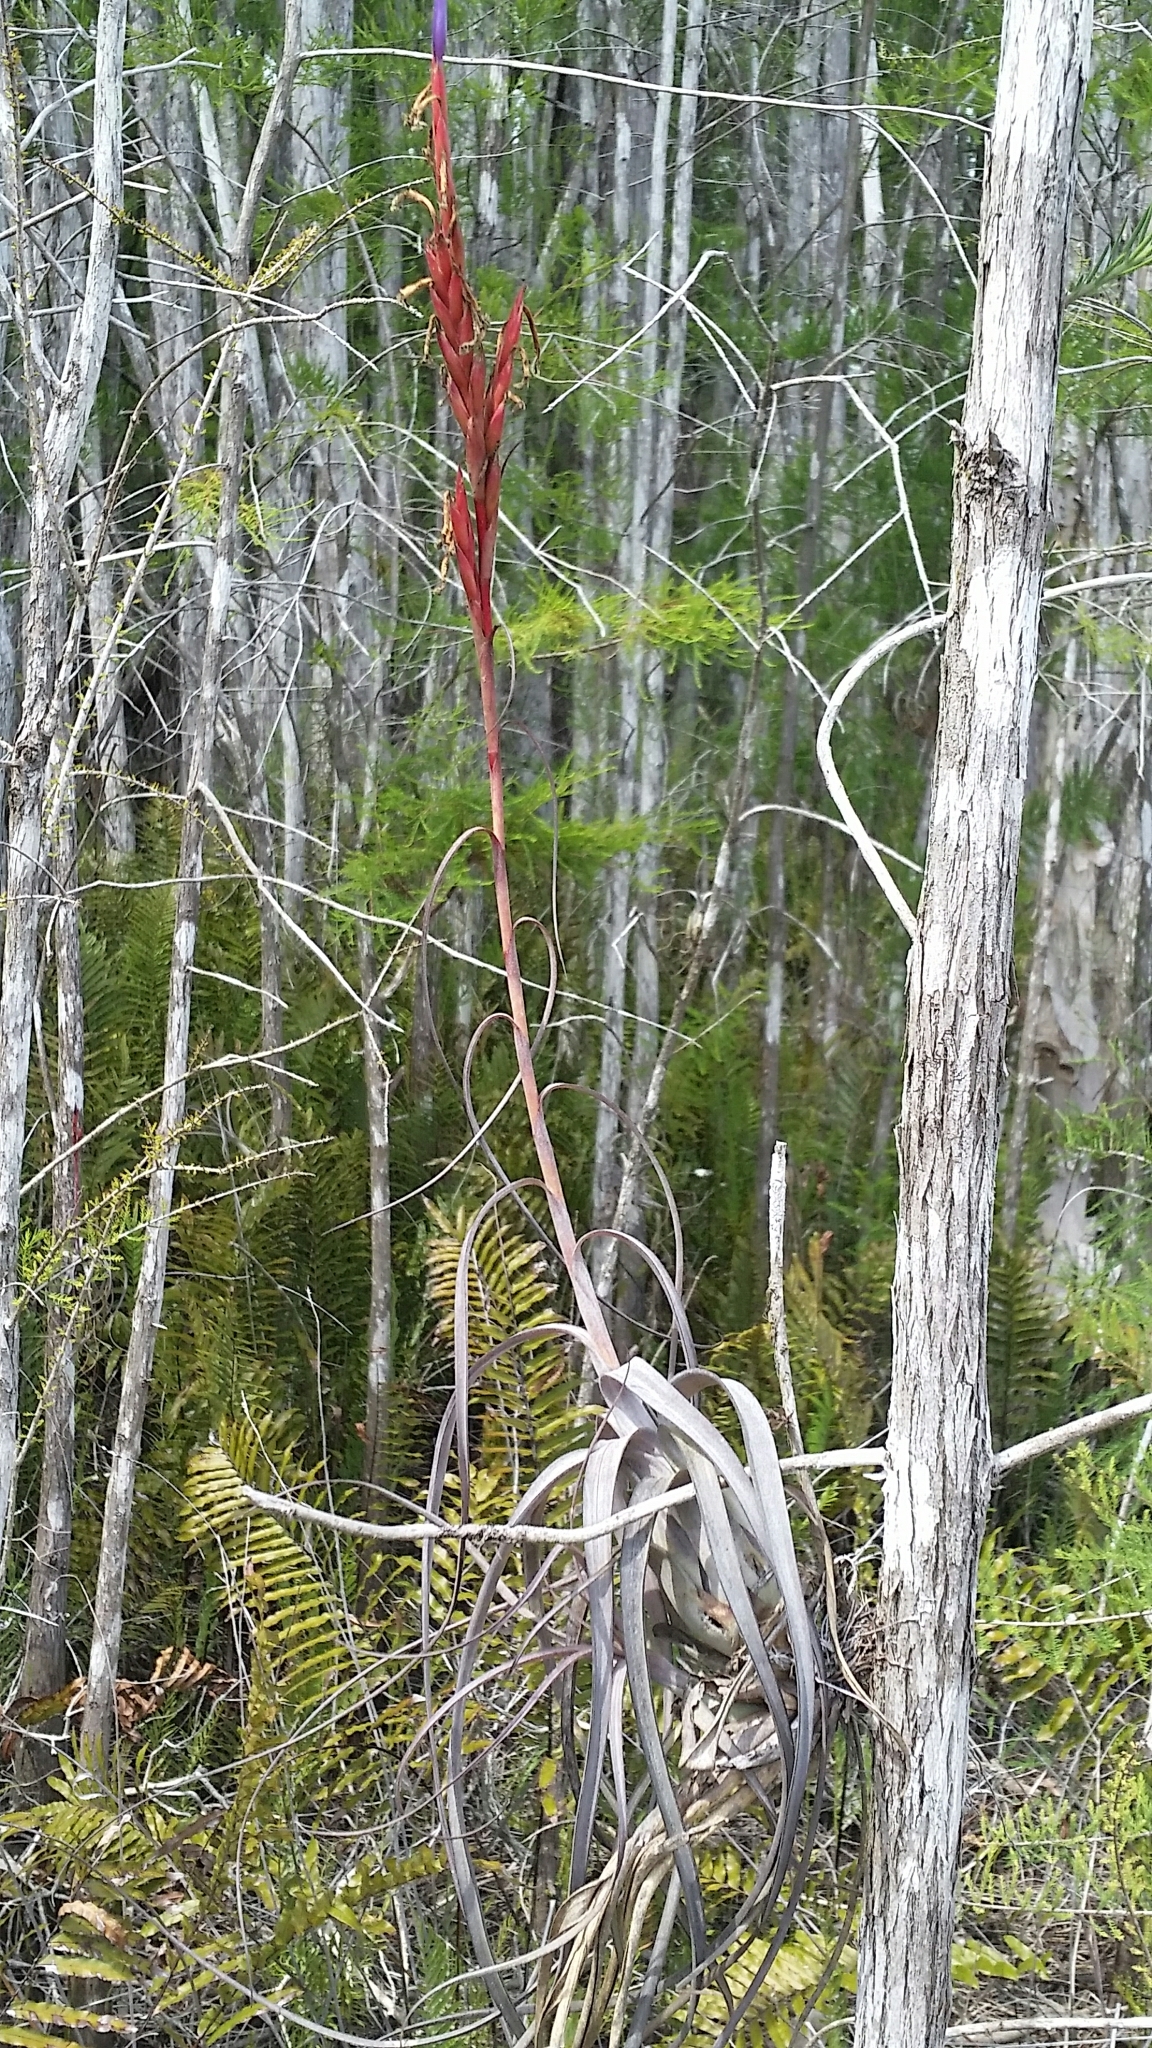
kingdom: Plantae
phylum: Tracheophyta
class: Liliopsida
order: Poales
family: Bromeliaceae
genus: Tillandsia
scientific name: Tillandsia balbisiana
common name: Northern needleleaf
